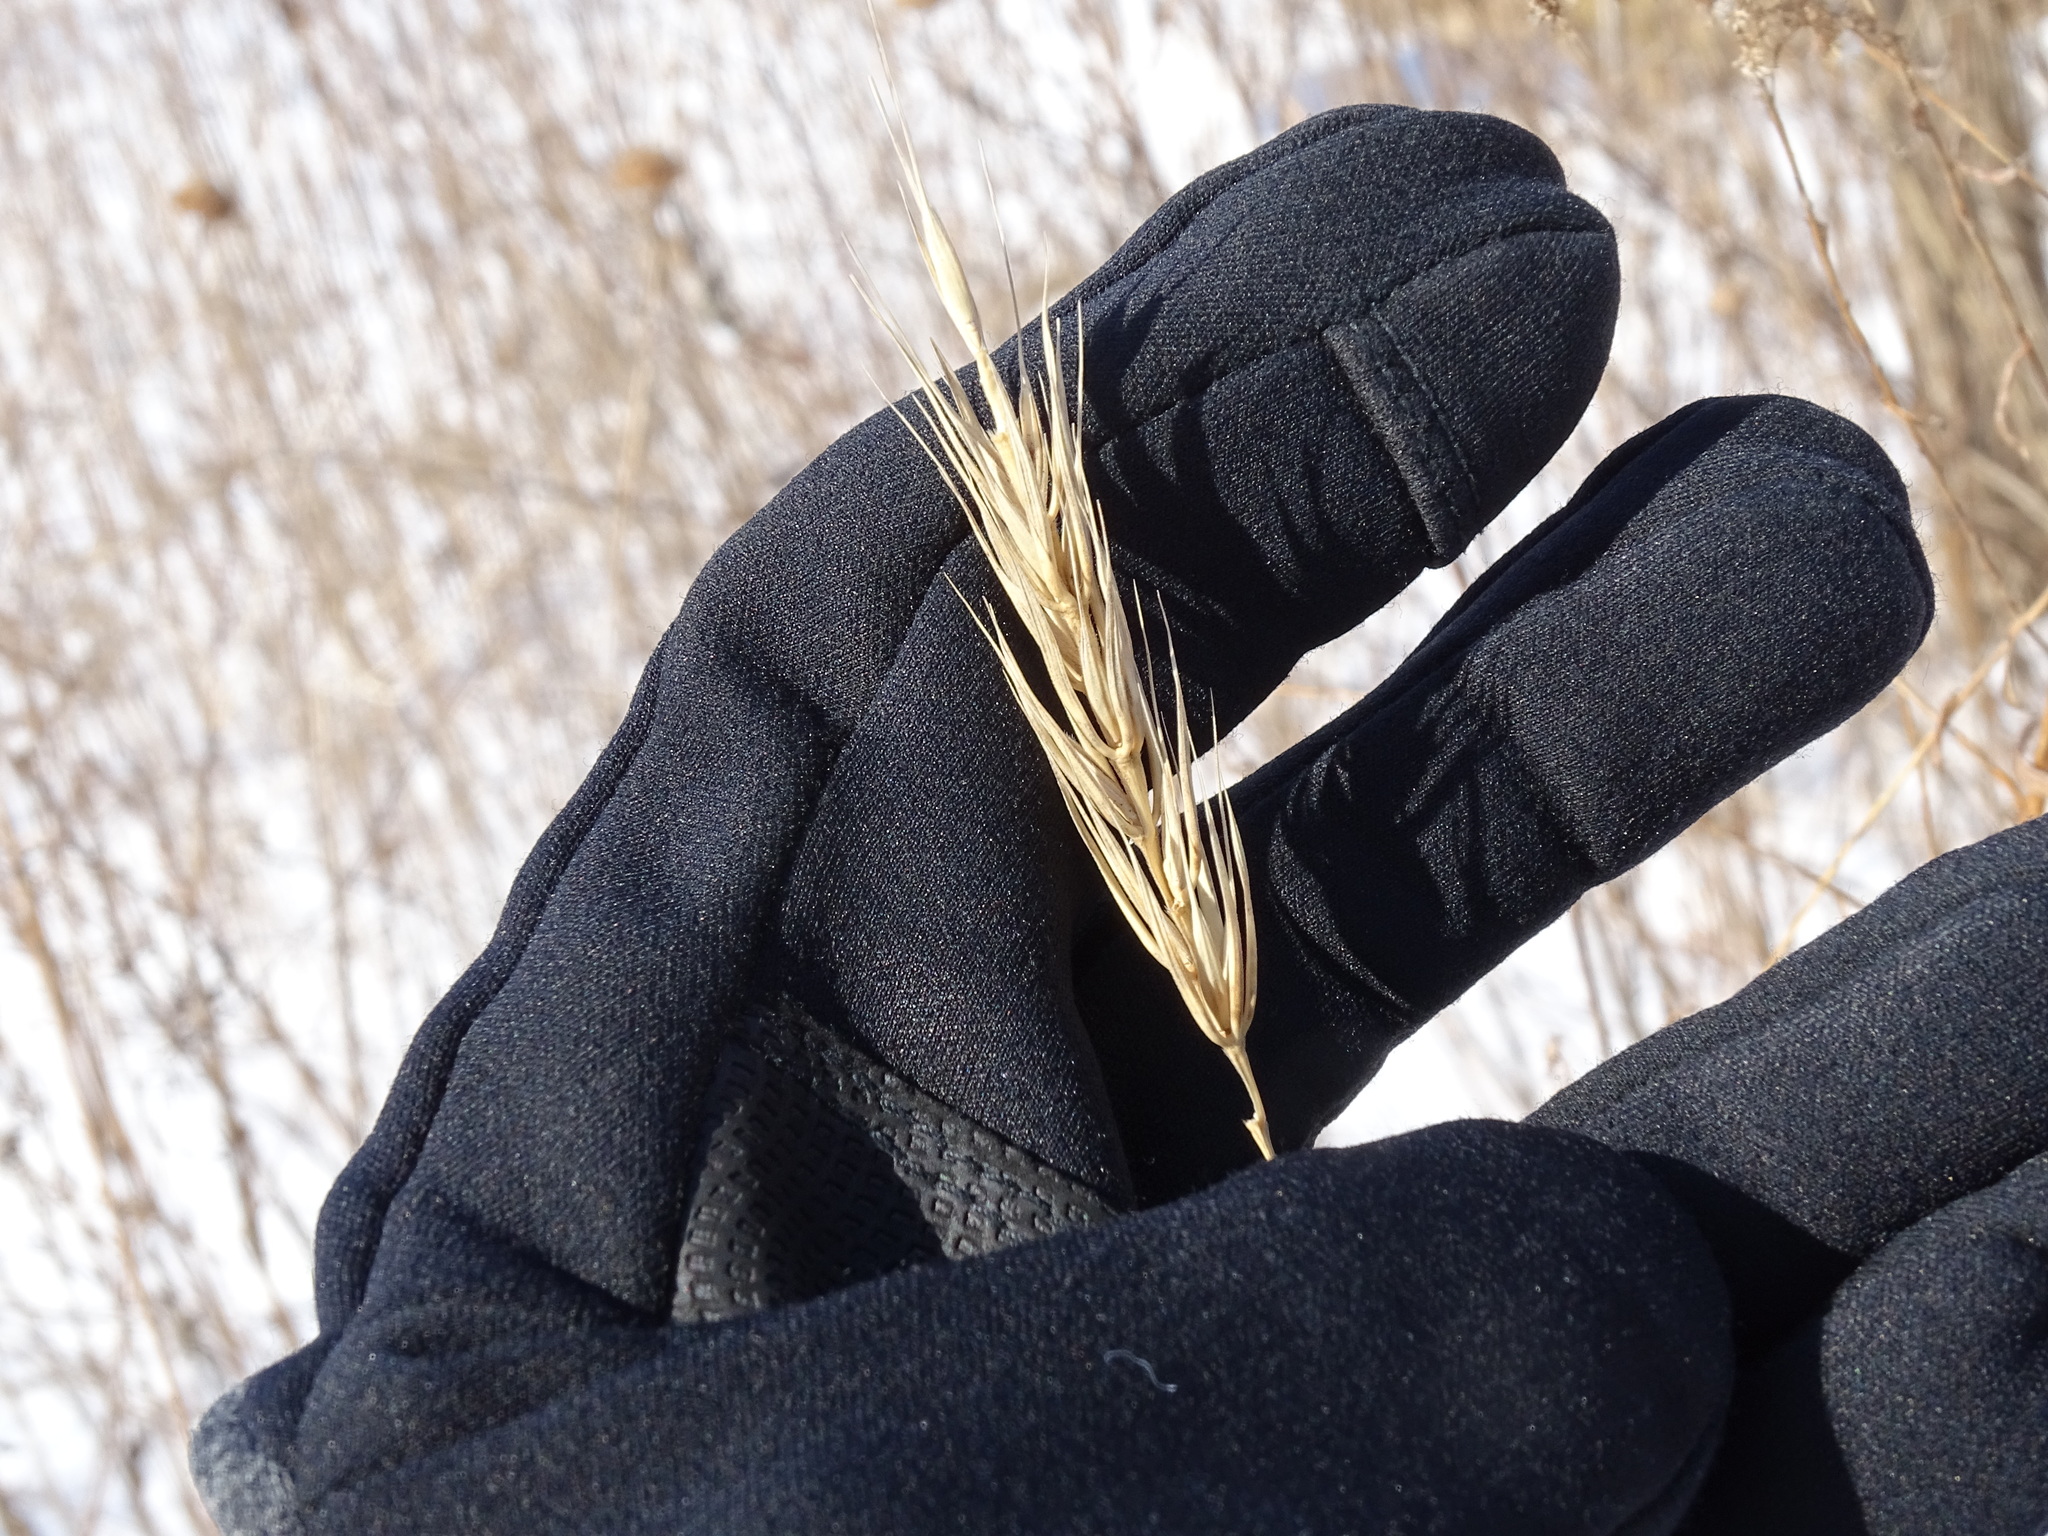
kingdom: Plantae
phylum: Tracheophyta
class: Liliopsida
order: Poales
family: Poaceae
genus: Elymus
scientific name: Elymus virginicus
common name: Common eastern wildrye
